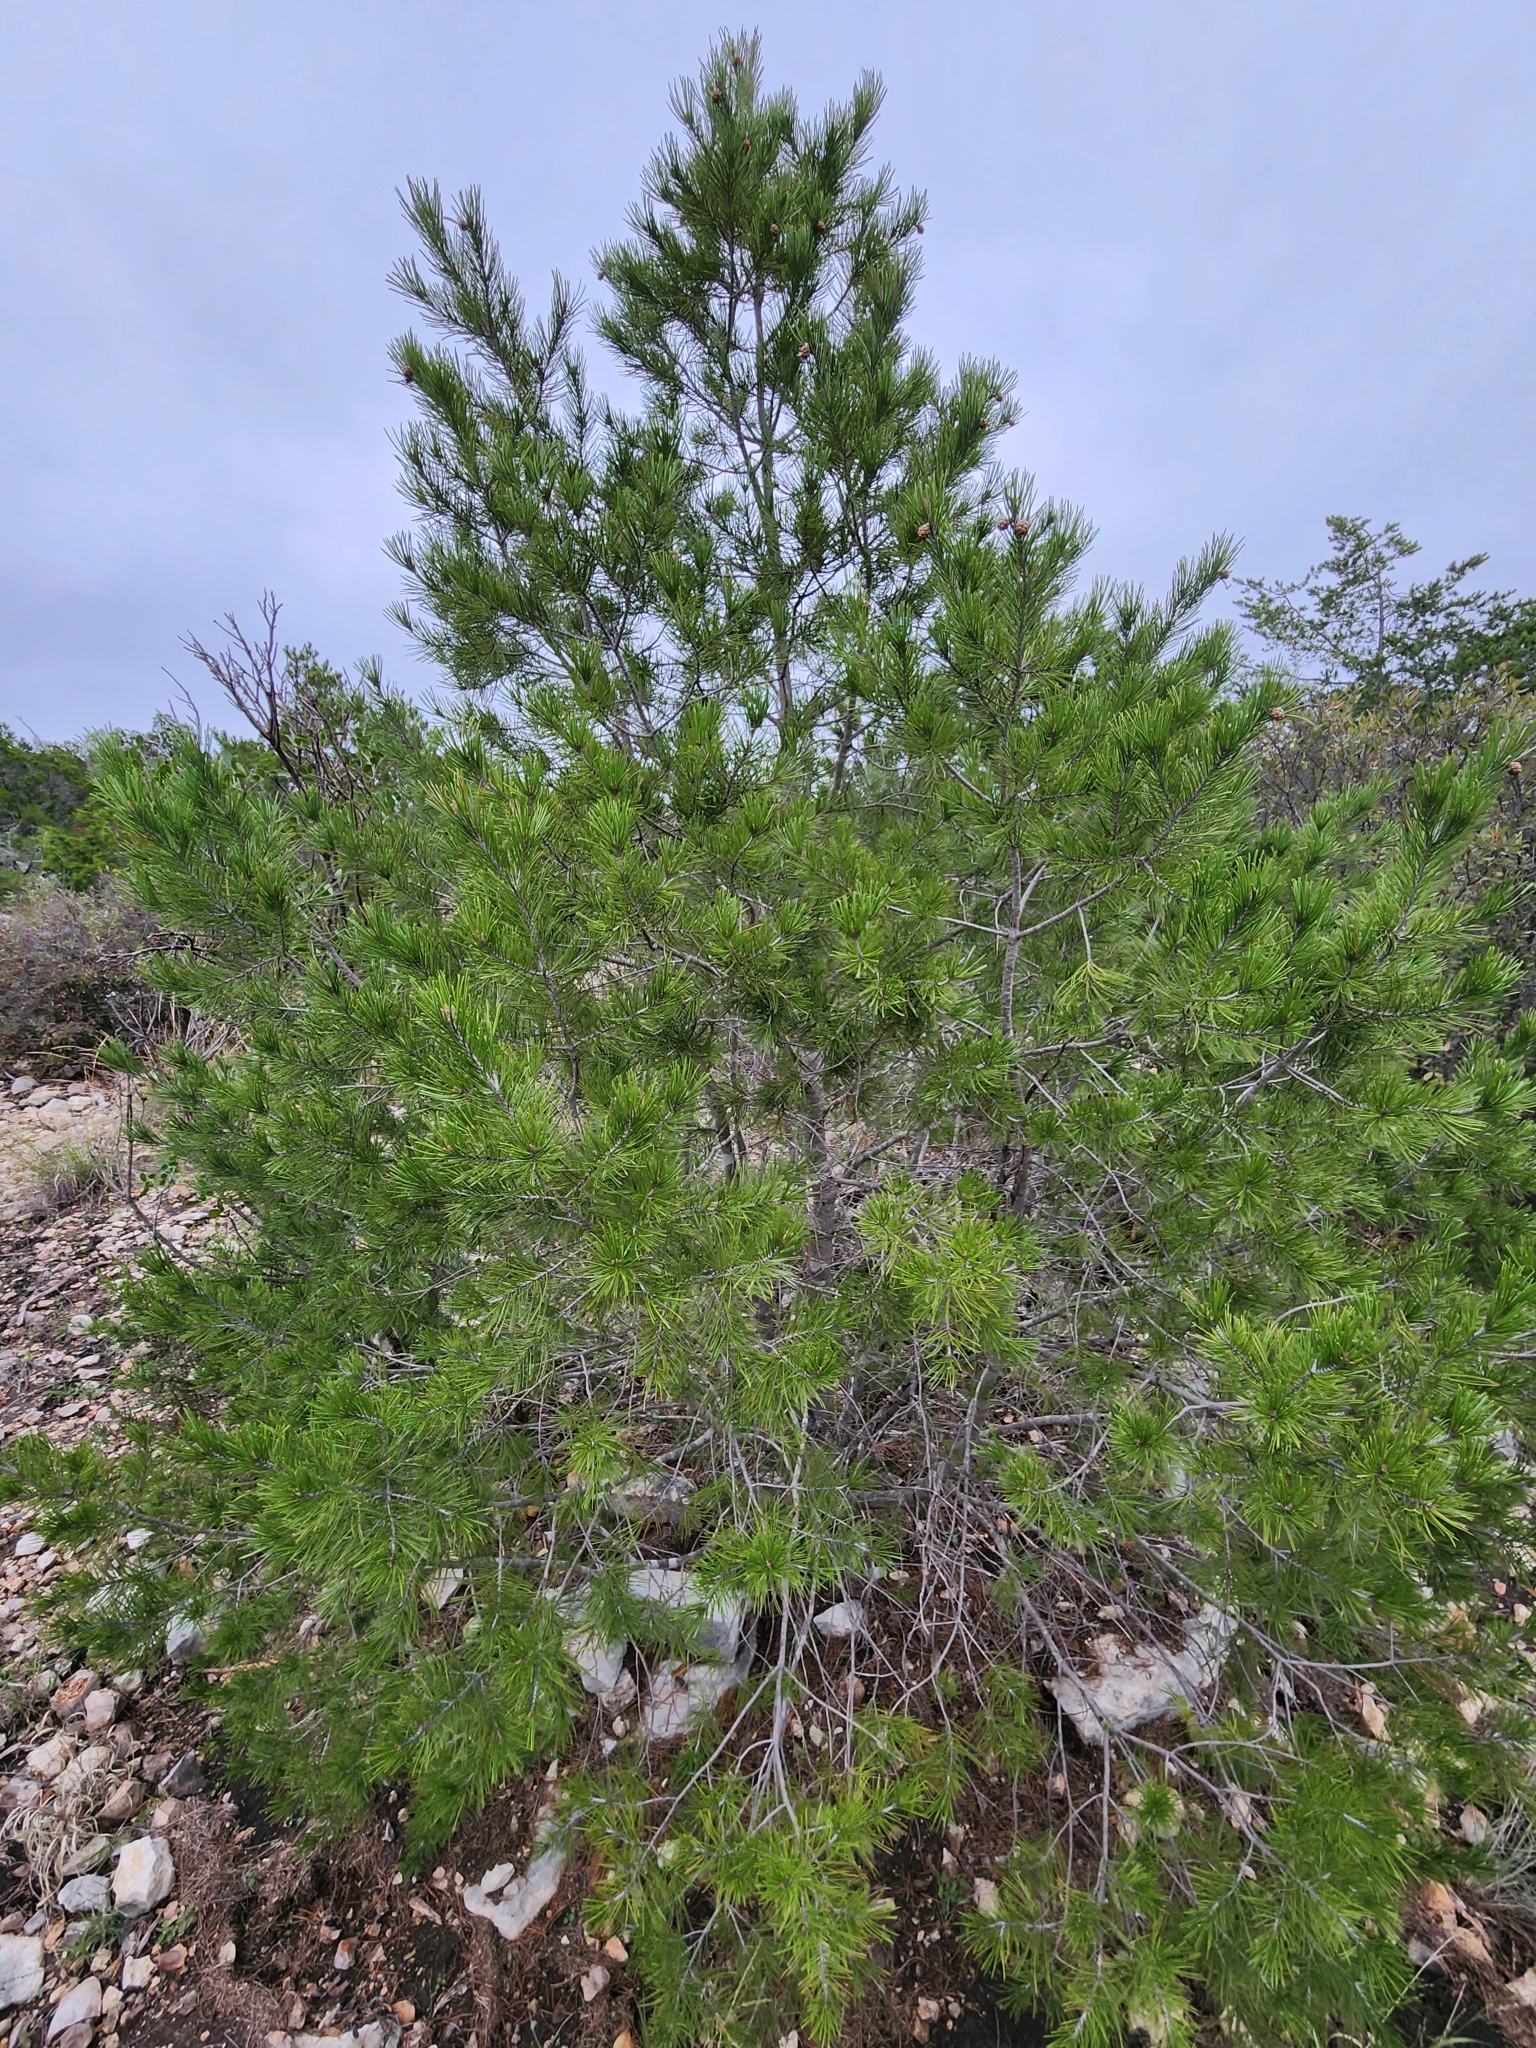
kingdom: Plantae
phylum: Tracheophyta
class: Pinopsida
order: Pinales
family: Pinaceae
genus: Pinus
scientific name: Pinus remota
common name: Nut pine
